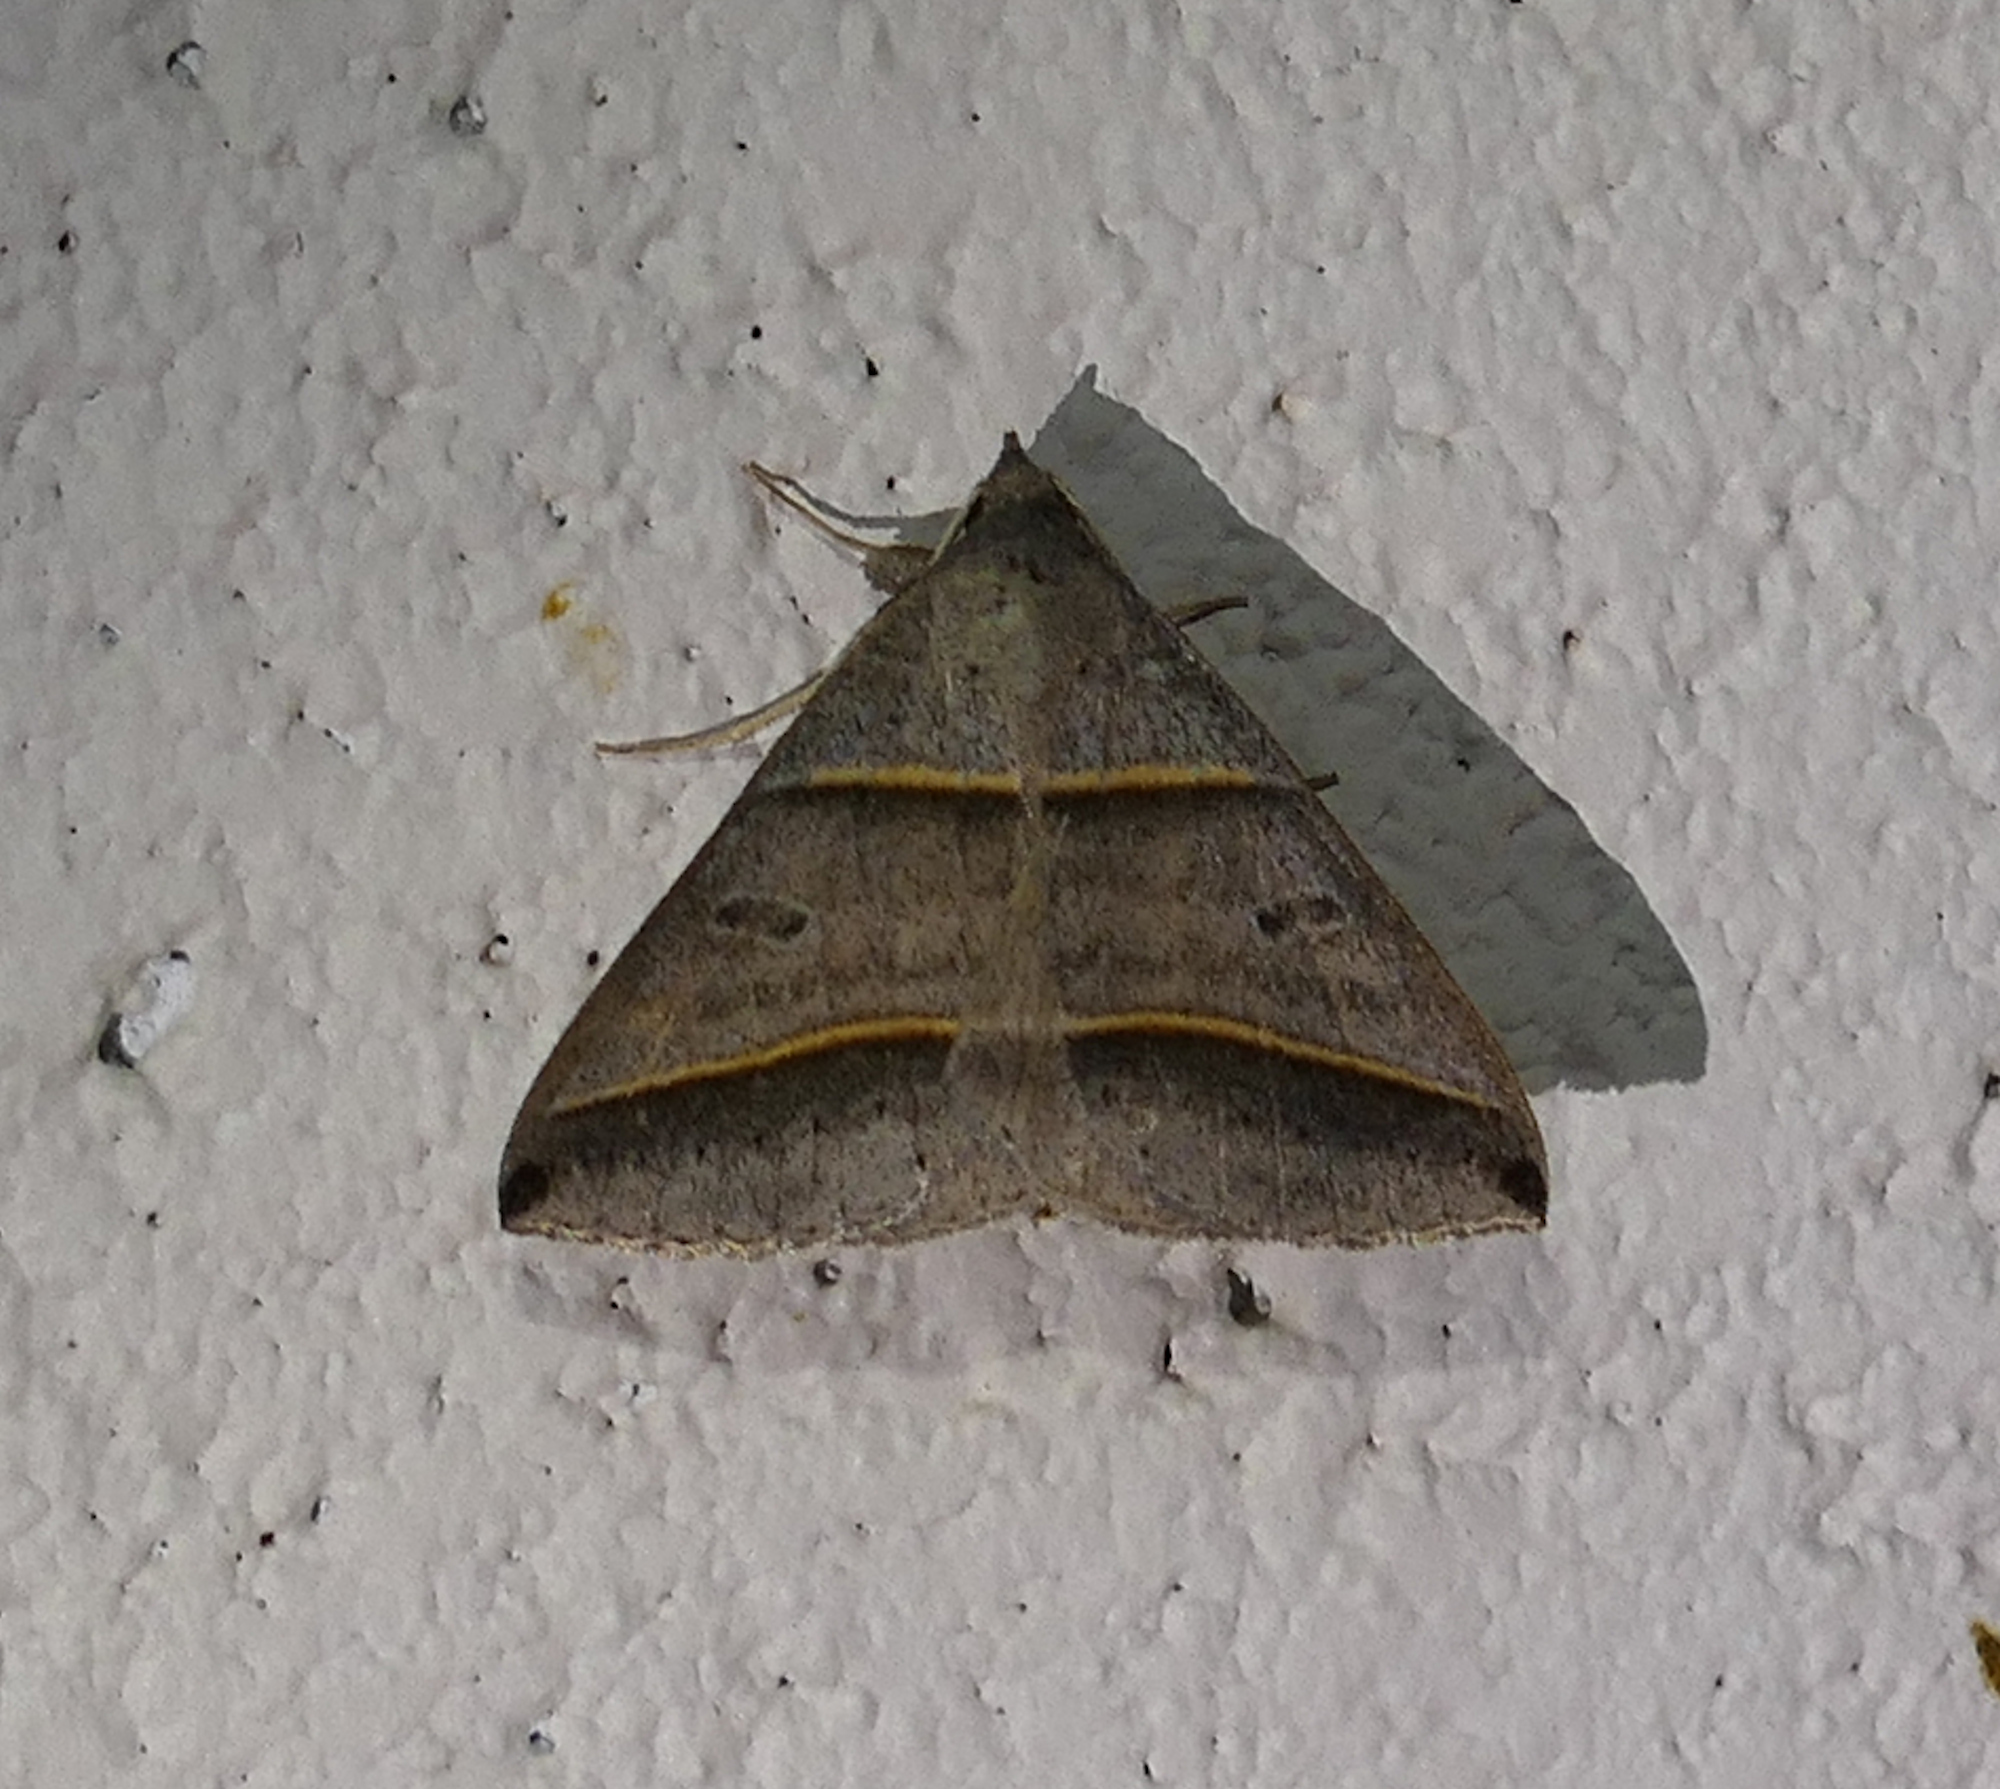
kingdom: Animalia
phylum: Arthropoda
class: Insecta
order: Lepidoptera
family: Erebidae
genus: Ptichodis
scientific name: Ptichodis vinculum
